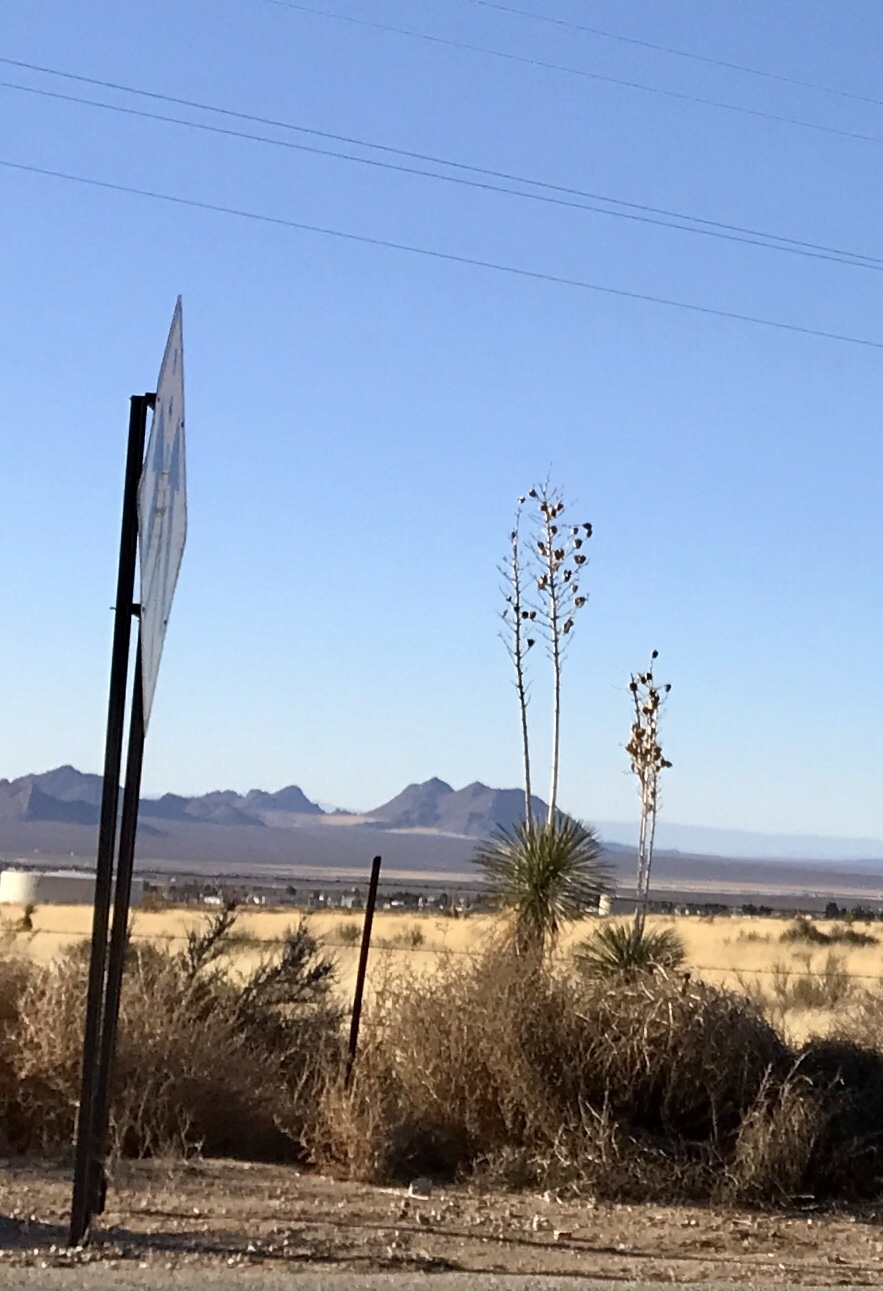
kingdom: Plantae
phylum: Tracheophyta
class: Liliopsida
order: Asparagales
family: Asparagaceae
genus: Yucca
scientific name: Yucca elata
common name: Palmella
